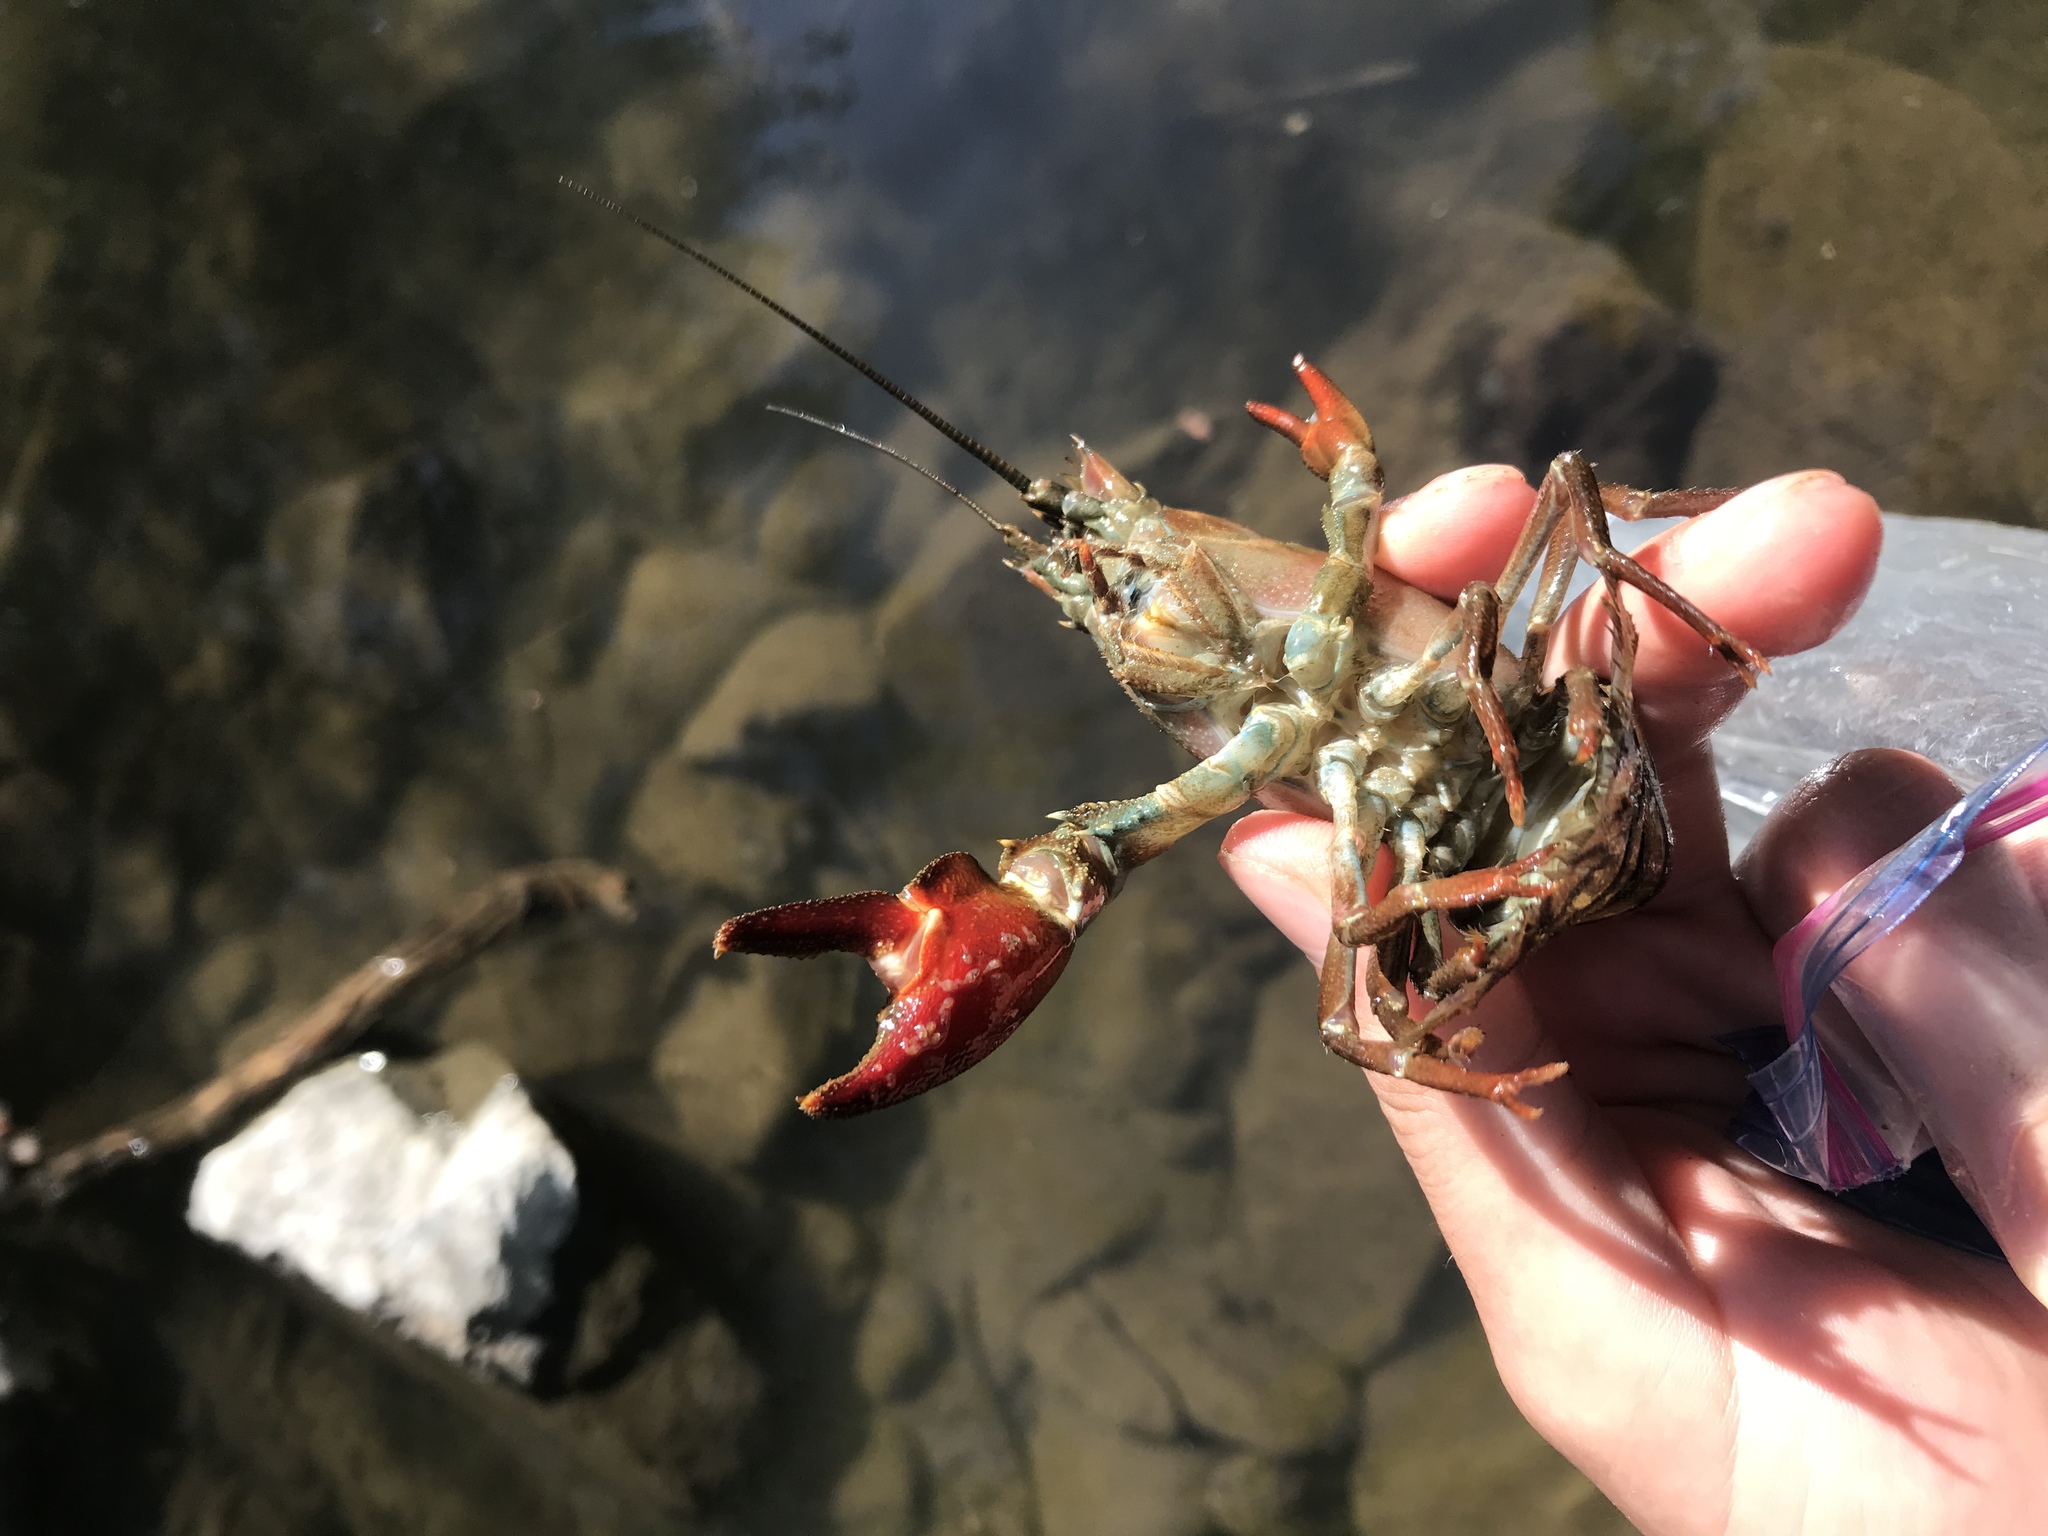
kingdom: Animalia
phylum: Arthropoda
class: Malacostraca
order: Decapoda
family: Astacidae
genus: Pacifastacus
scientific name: Pacifastacus leniusculus
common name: Signal crayfish
